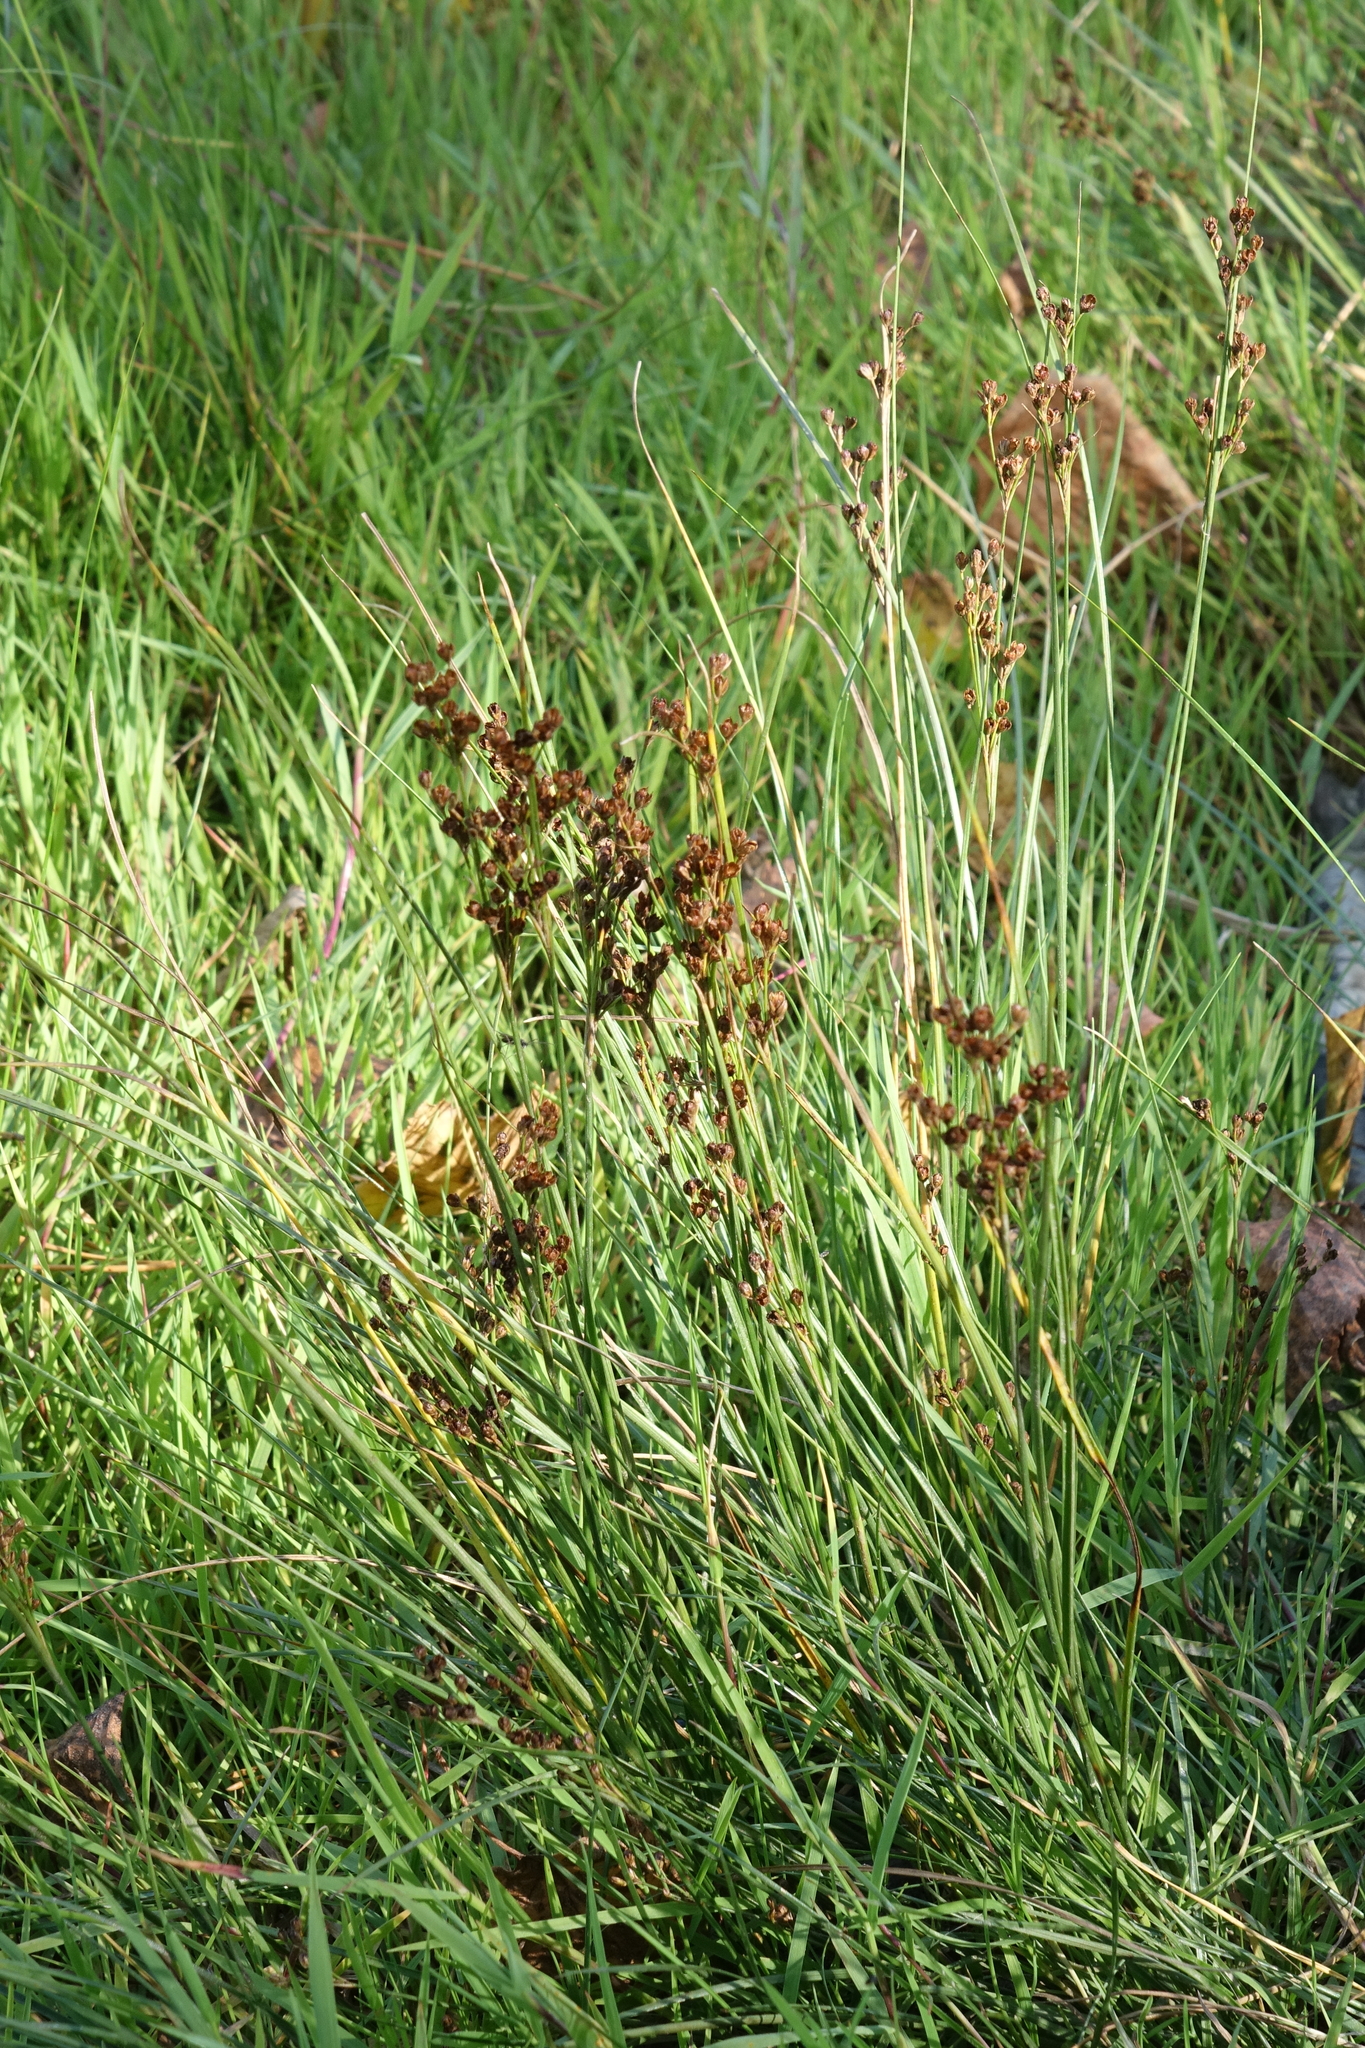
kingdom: Plantae
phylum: Tracheophyta
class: Liliopsida
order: Poales
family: Juncaceae
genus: Juncus
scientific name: Juncus compressus
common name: Round-fruited rush
